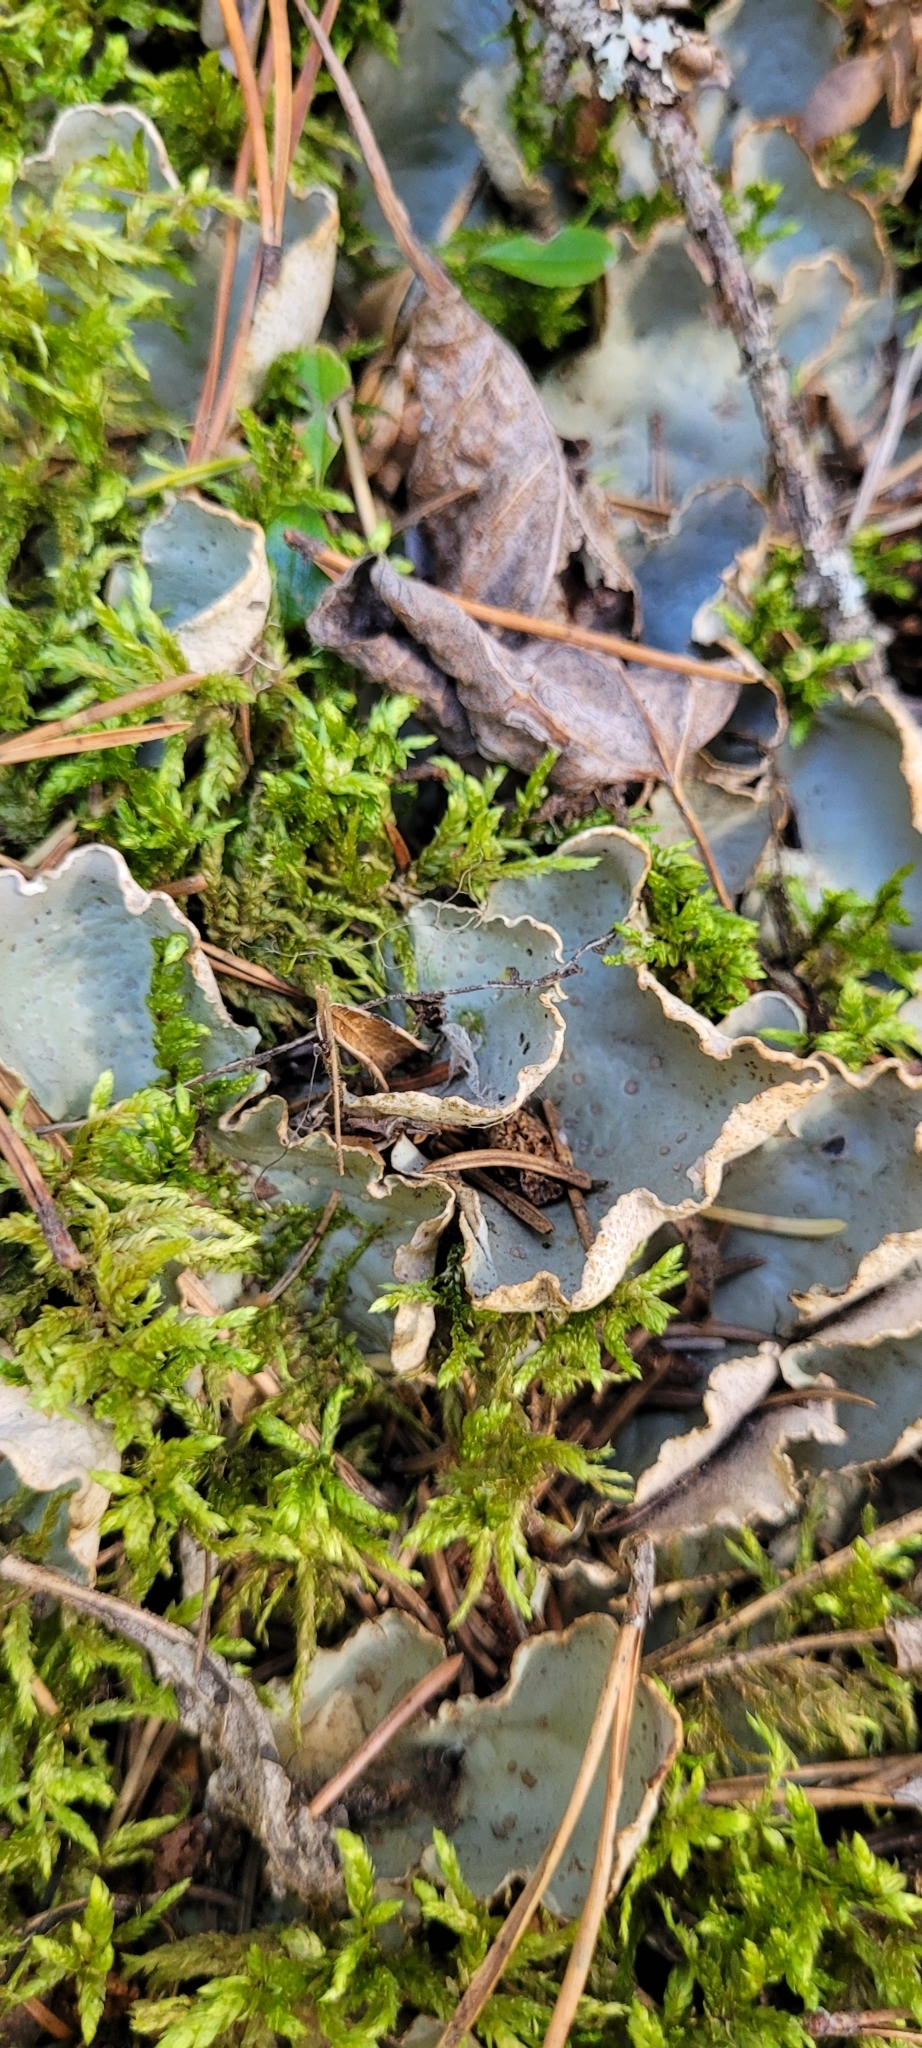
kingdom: Fungi
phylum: Ascomycota
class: Lecanoromycetes
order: Peltigerales
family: Peltigeraceae
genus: Peltigera
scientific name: Peltigera leucophlebia
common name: Ruffled freckle pelt lichen
